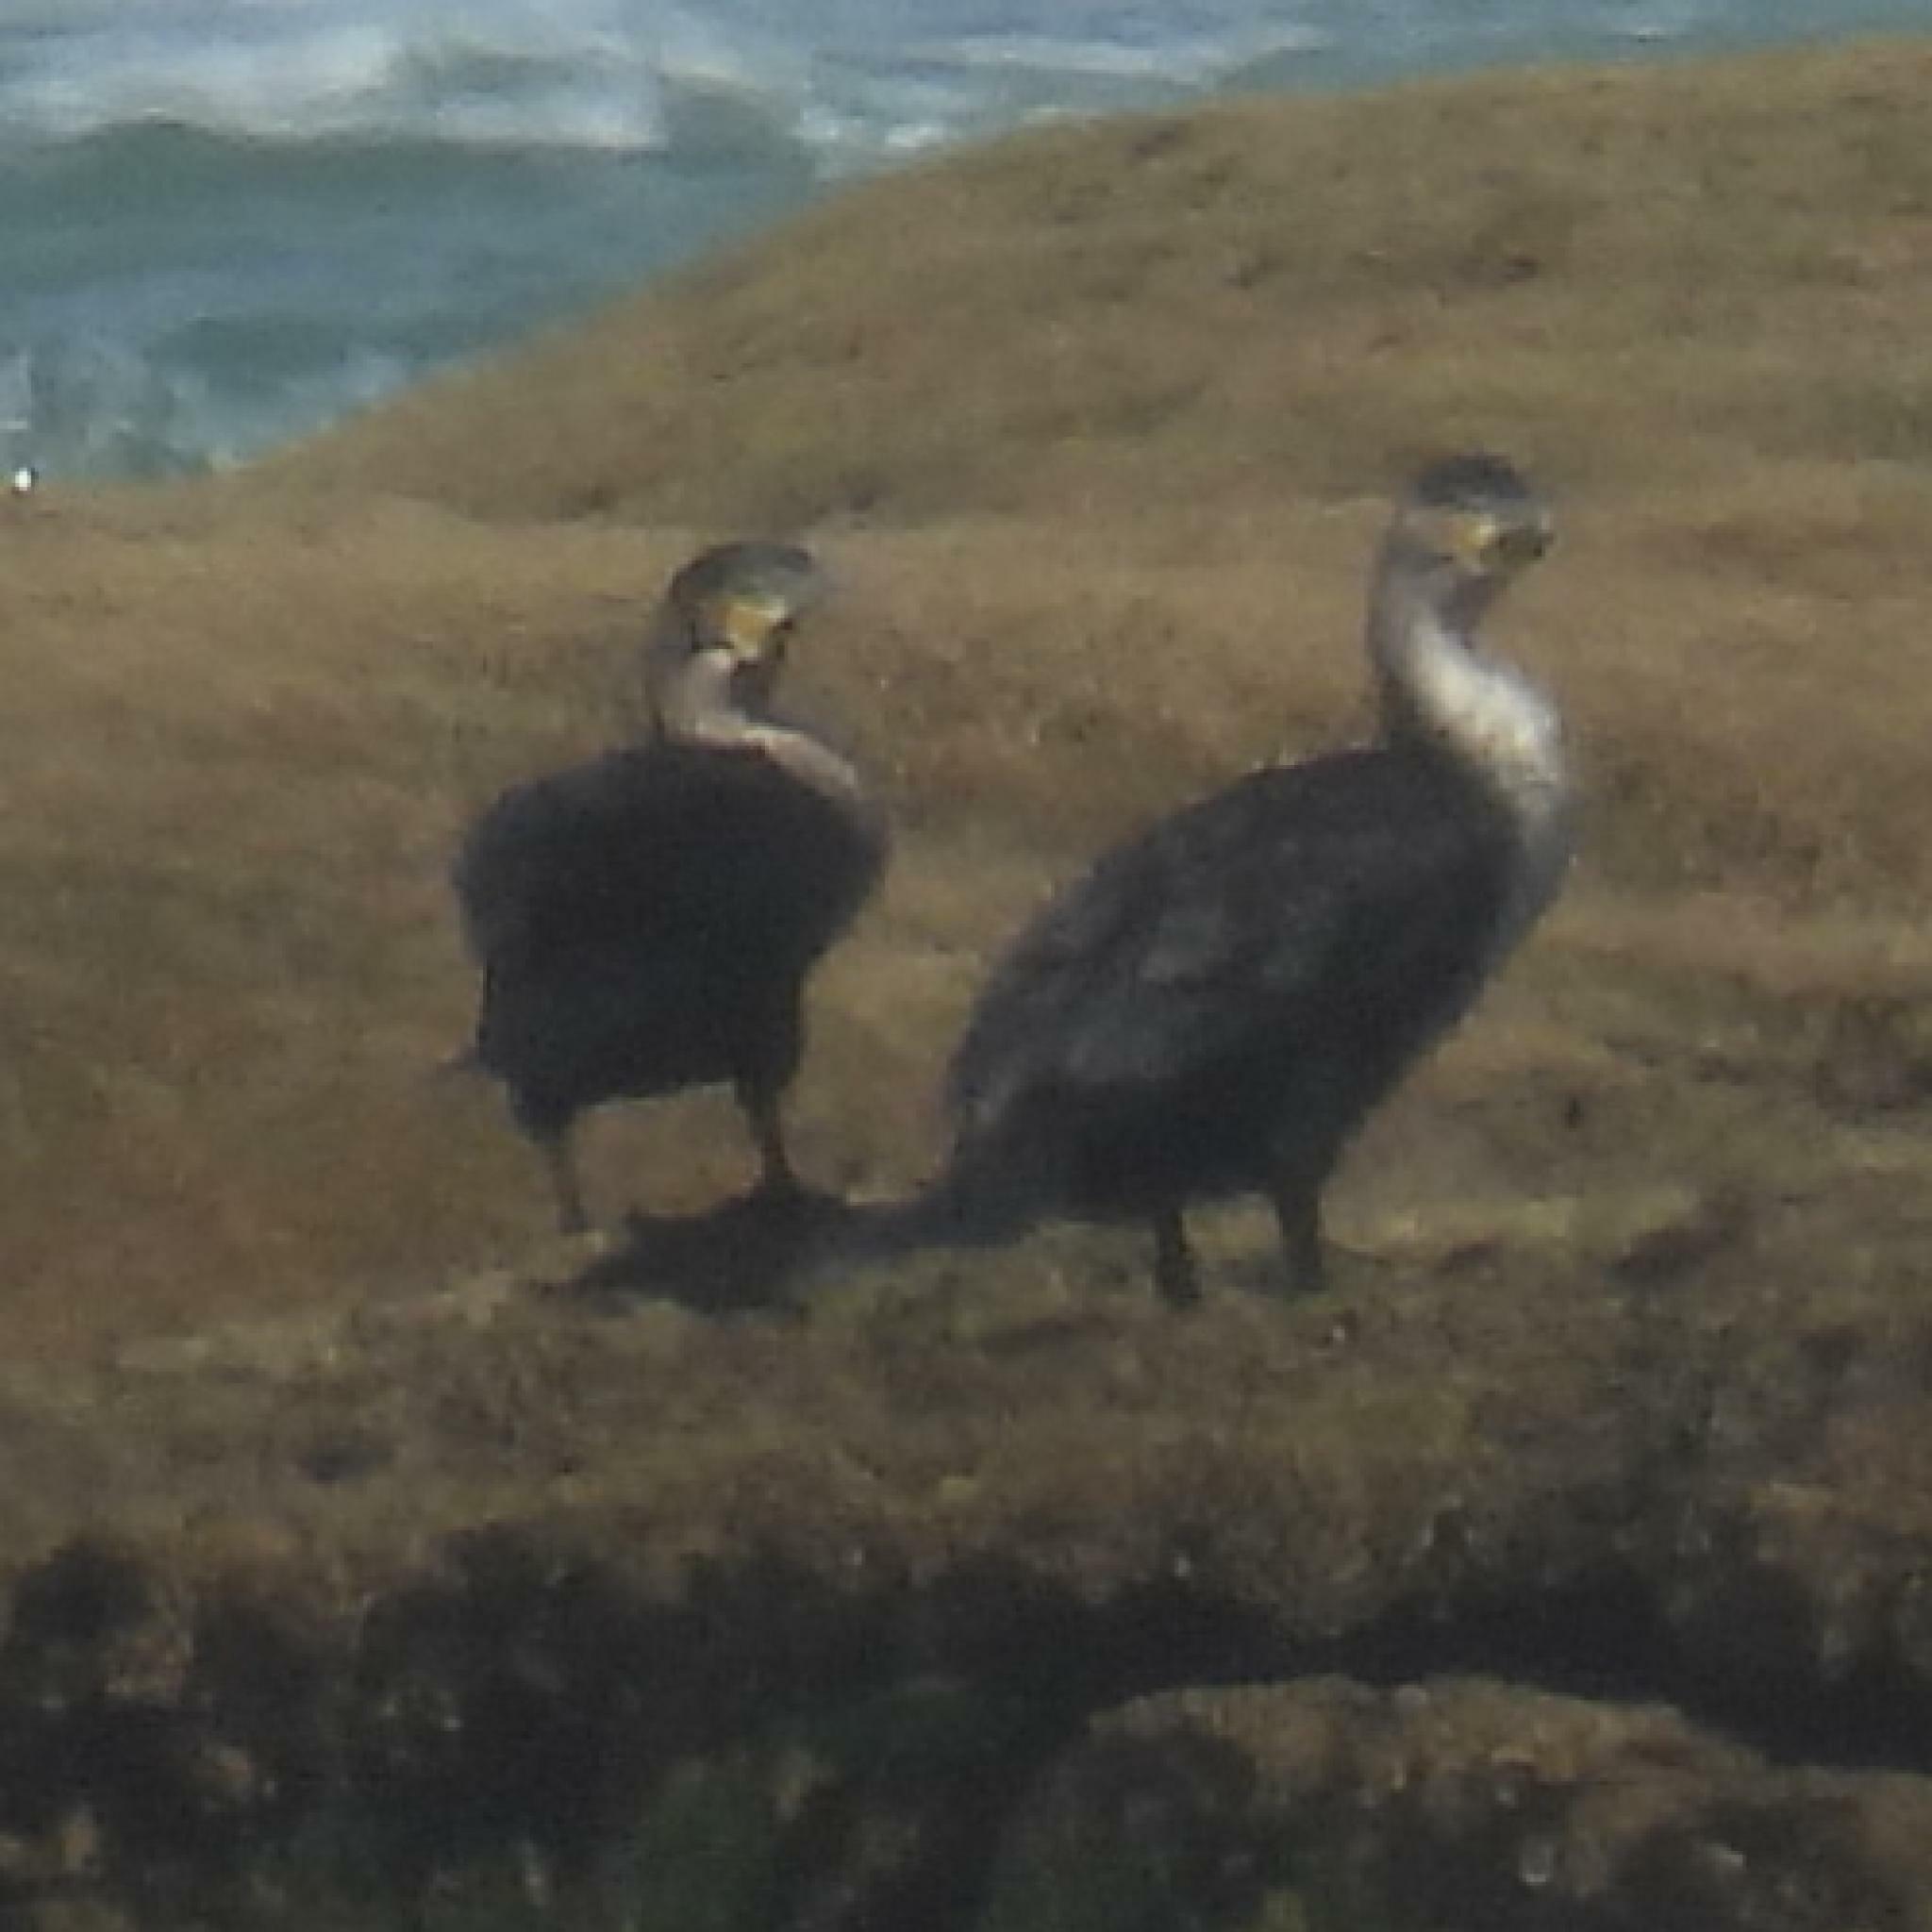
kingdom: Animalia
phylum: Chordata
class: Aves
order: Suliformes
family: Phalacrocoracidae
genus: Phalacrocorax
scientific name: Phalacrocorax carbo
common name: Great cormorant
